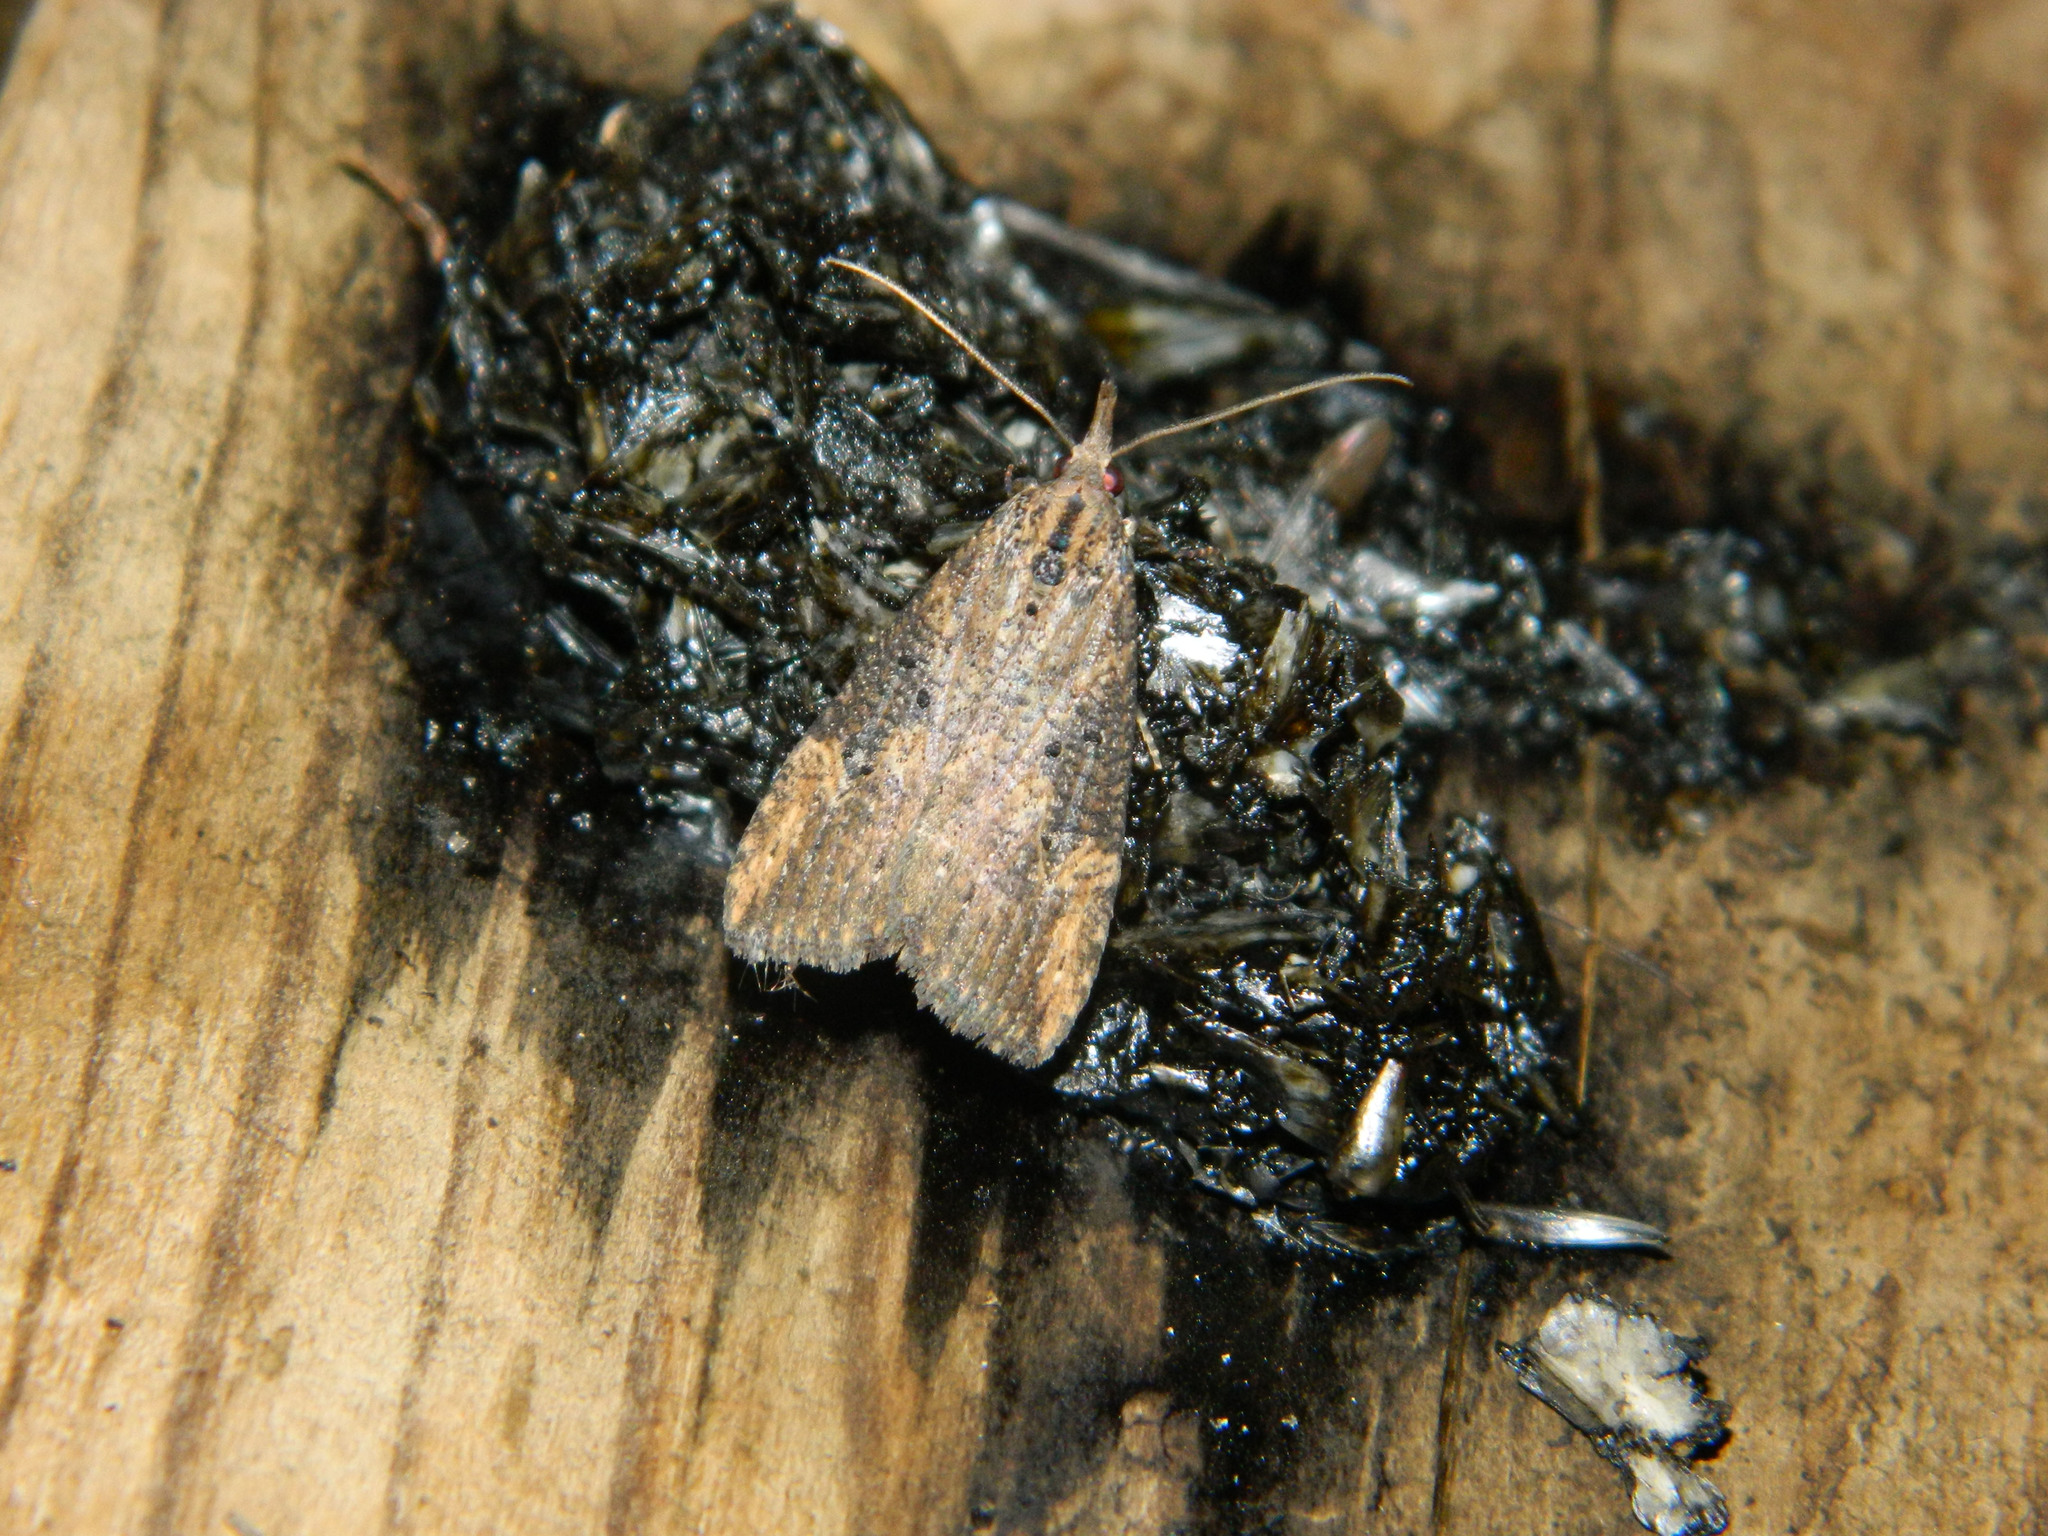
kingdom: Animalia
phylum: Arthropoda
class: Insecta
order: Lepidoptera
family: Erebidae
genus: Hypena
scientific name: Hypena humuli
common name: Hop vine snout
